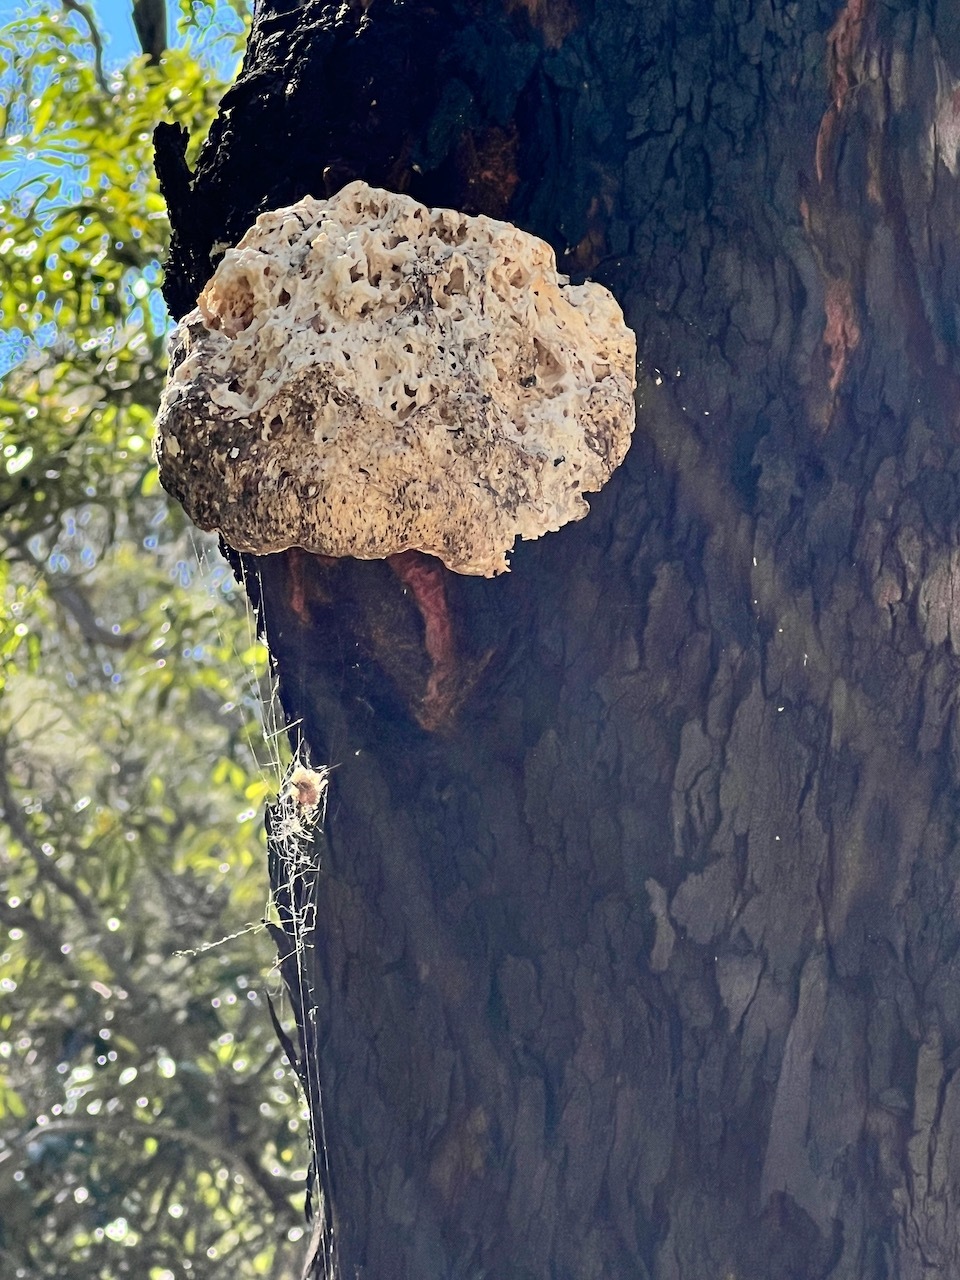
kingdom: Fungi
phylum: Basidiomycota
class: Agaricomycetes
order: Polyporales
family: Laetiporaceae
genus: Laetiporus
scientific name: Laetiporus portentosus
